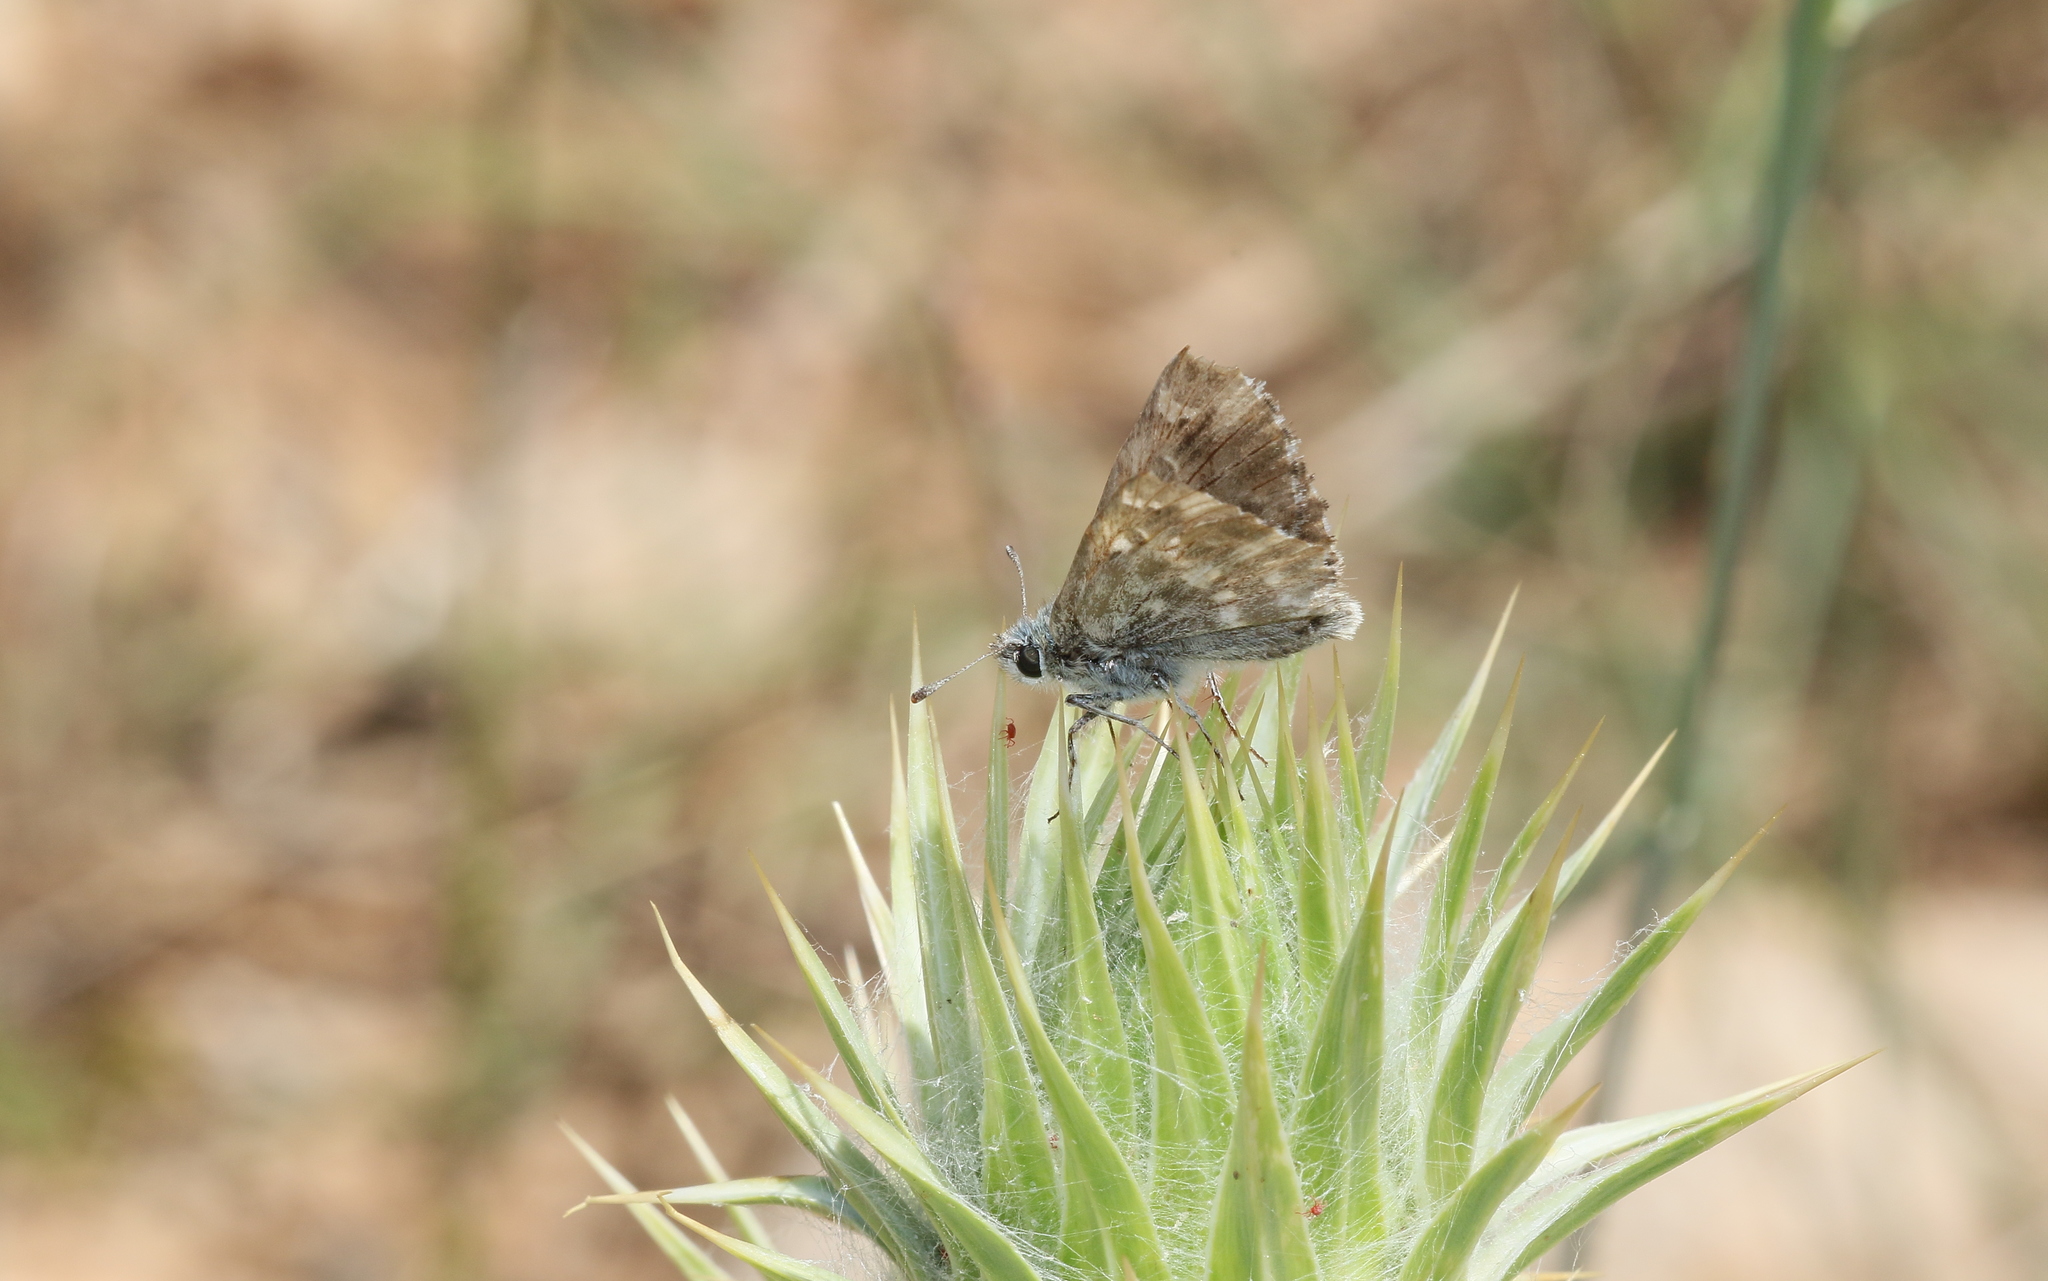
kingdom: Animalia
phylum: Arthropoda
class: Insecta
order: Lepidoptera
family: Hesperiidae
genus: Carcharodus
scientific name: Carcharodus alceae
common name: Mallow skipper
